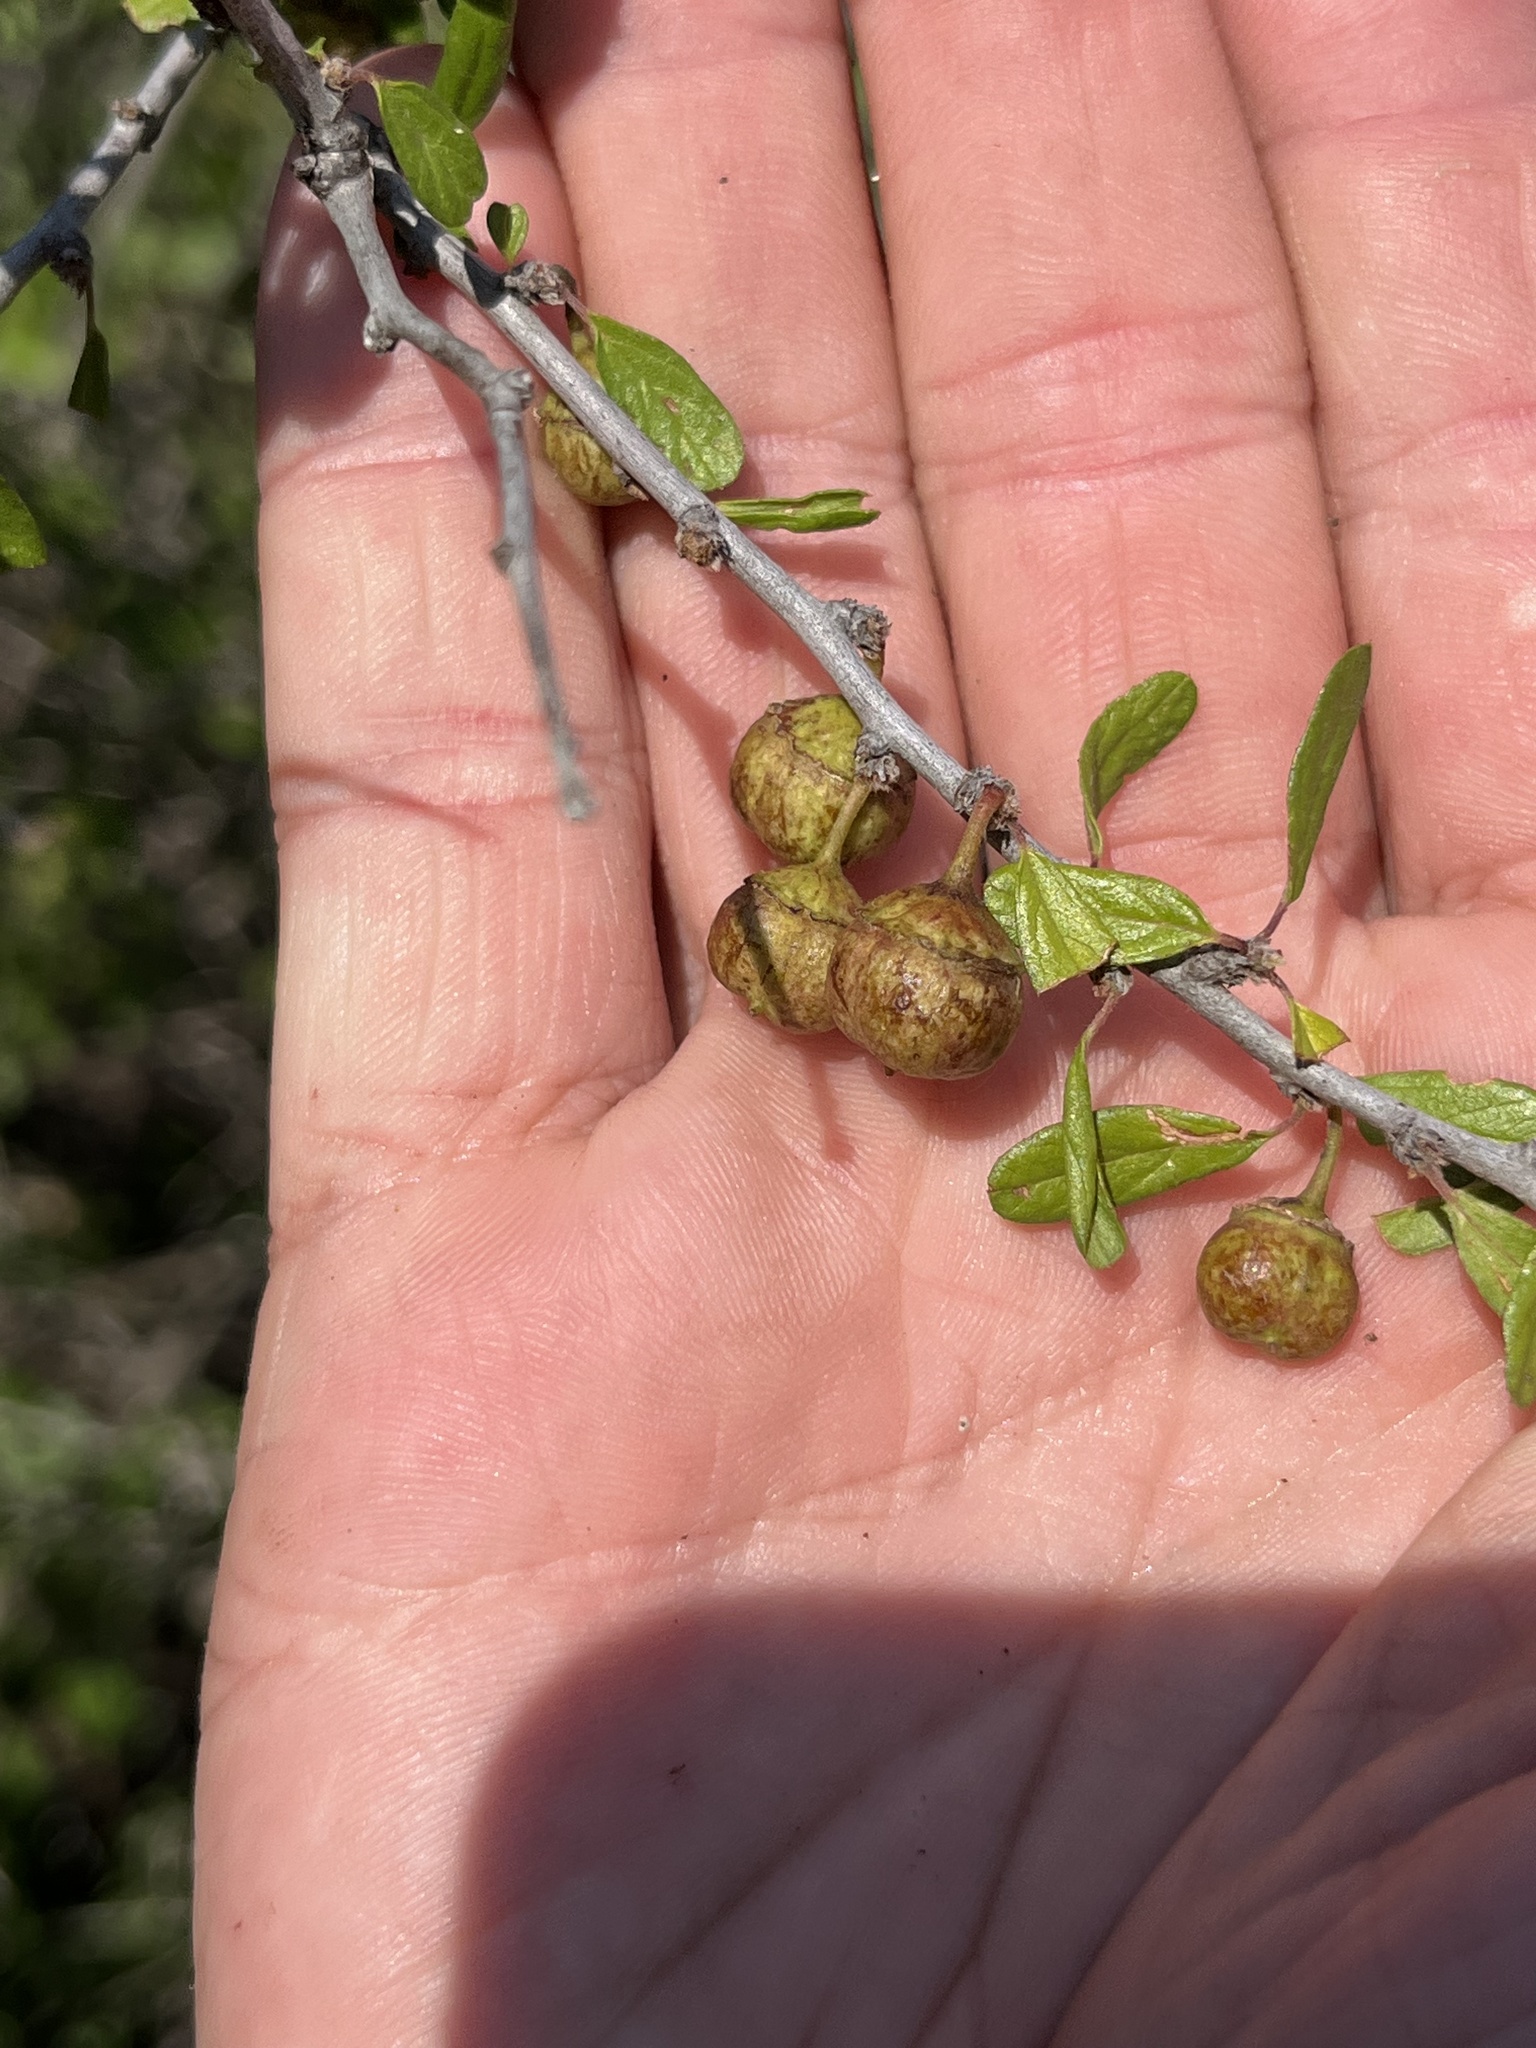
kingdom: Plantae
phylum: Tracheophyta
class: Magnoliopsida
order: Rosales
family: Rhamnaceae
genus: Colubrina
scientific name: Colubrina texensis
